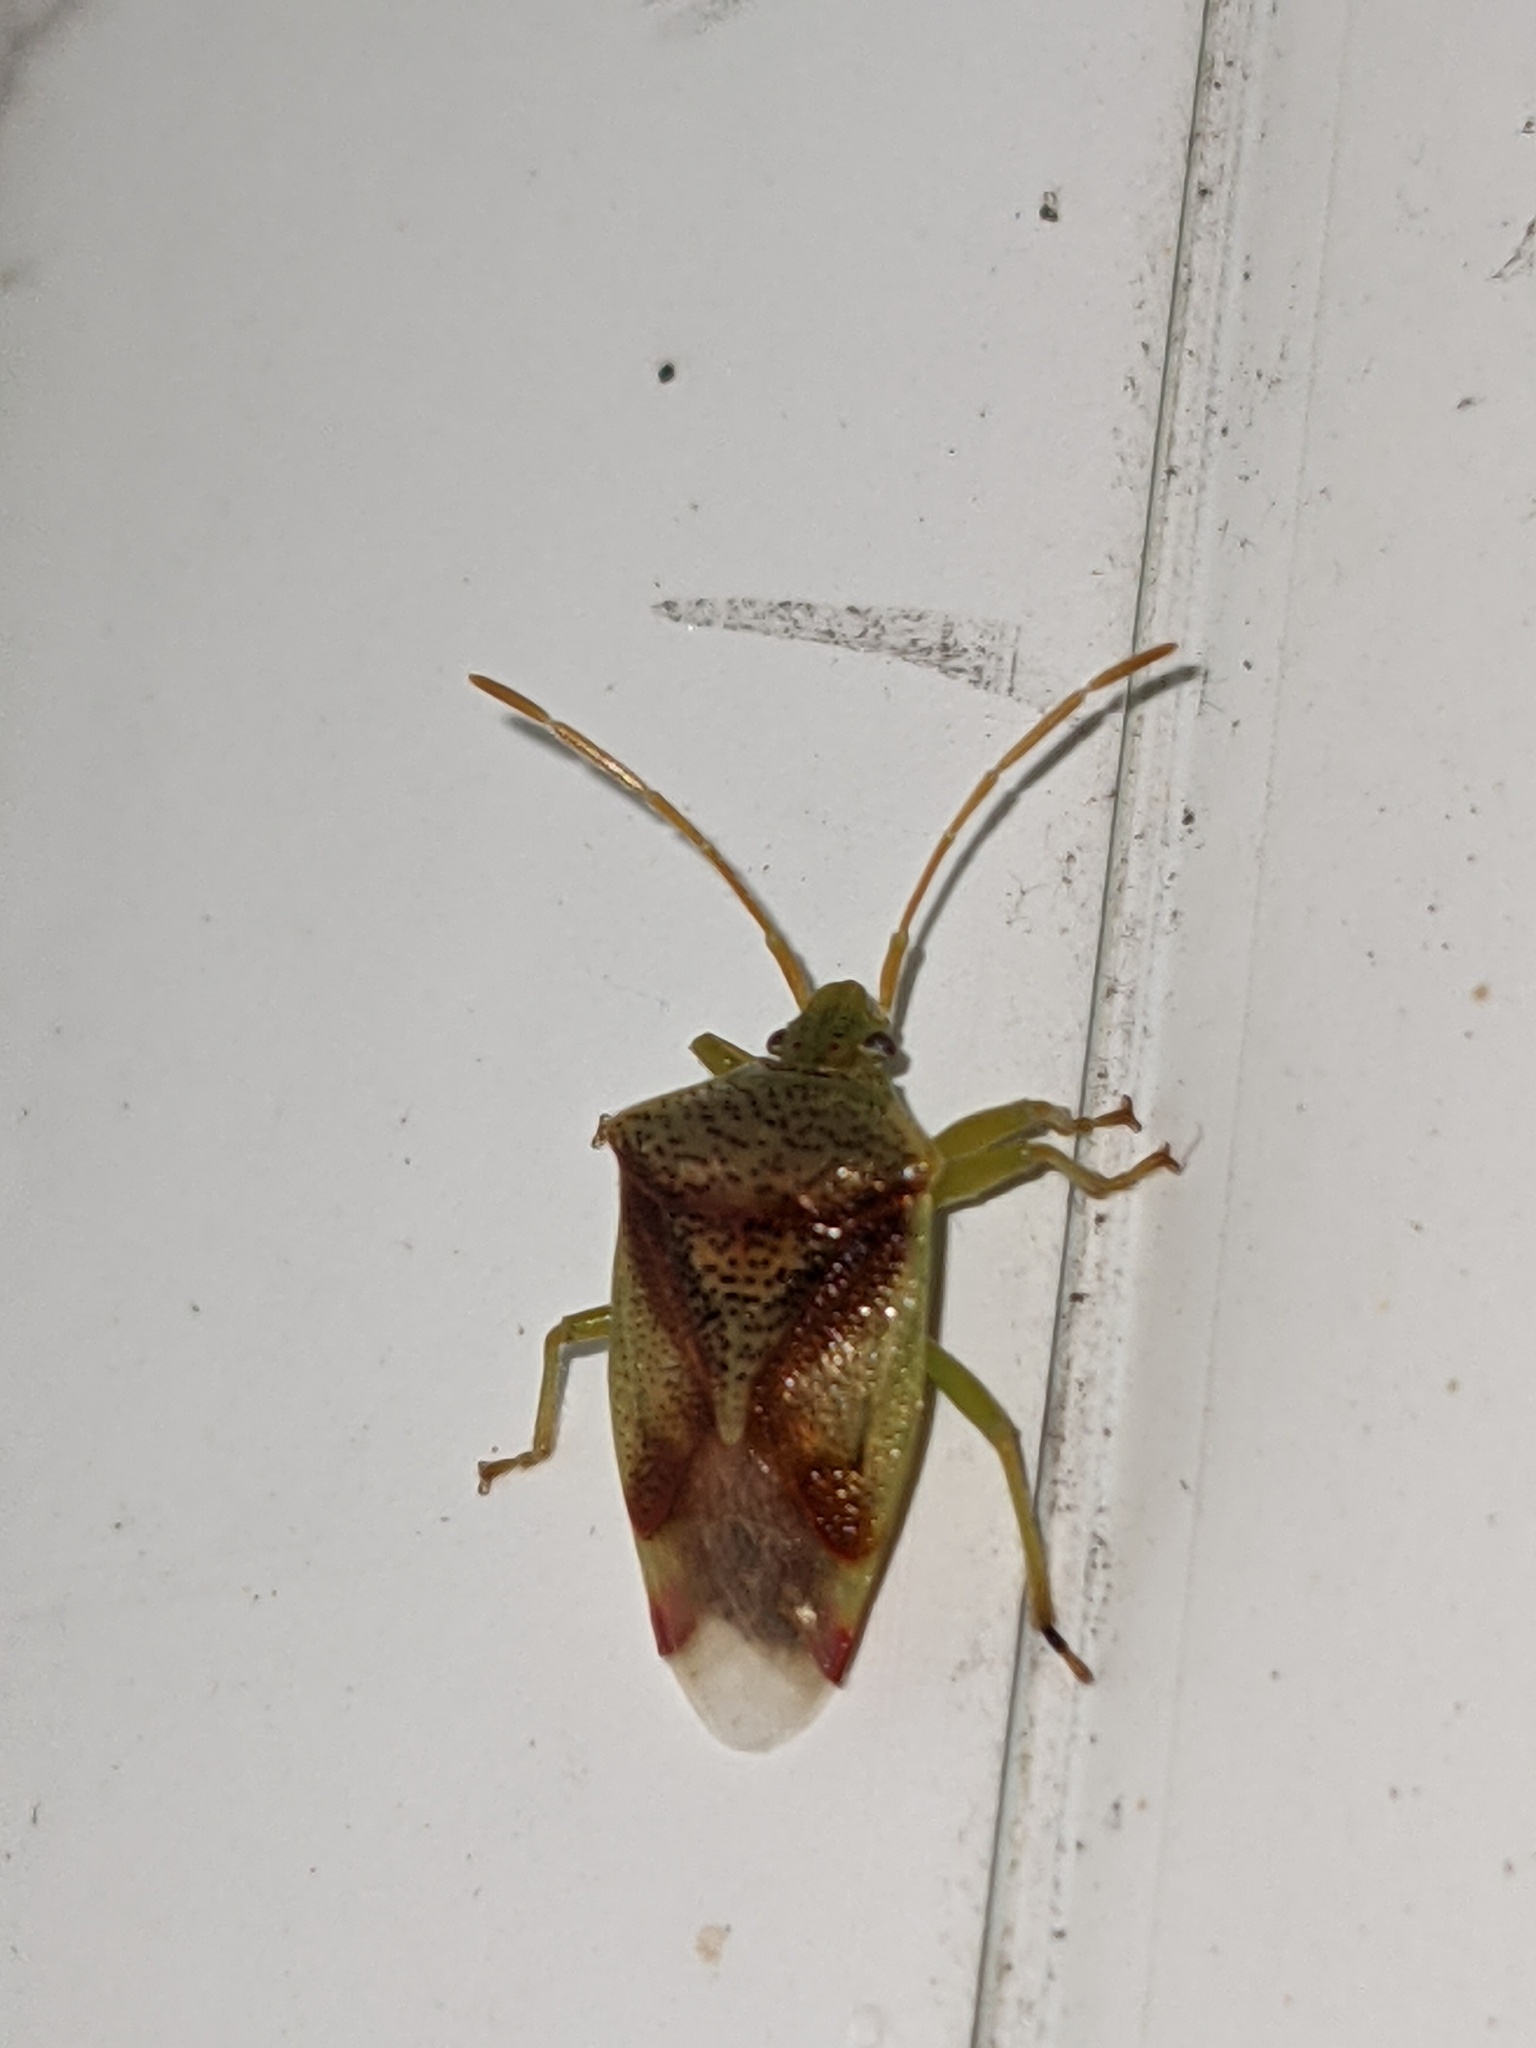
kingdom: Animalia
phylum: Arthropoda
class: Insecta
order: Hemiptera
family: Acanthosomatidae
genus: Elasmostethus
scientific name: Elasmostethus cruciatus
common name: Red-cross shield bug
